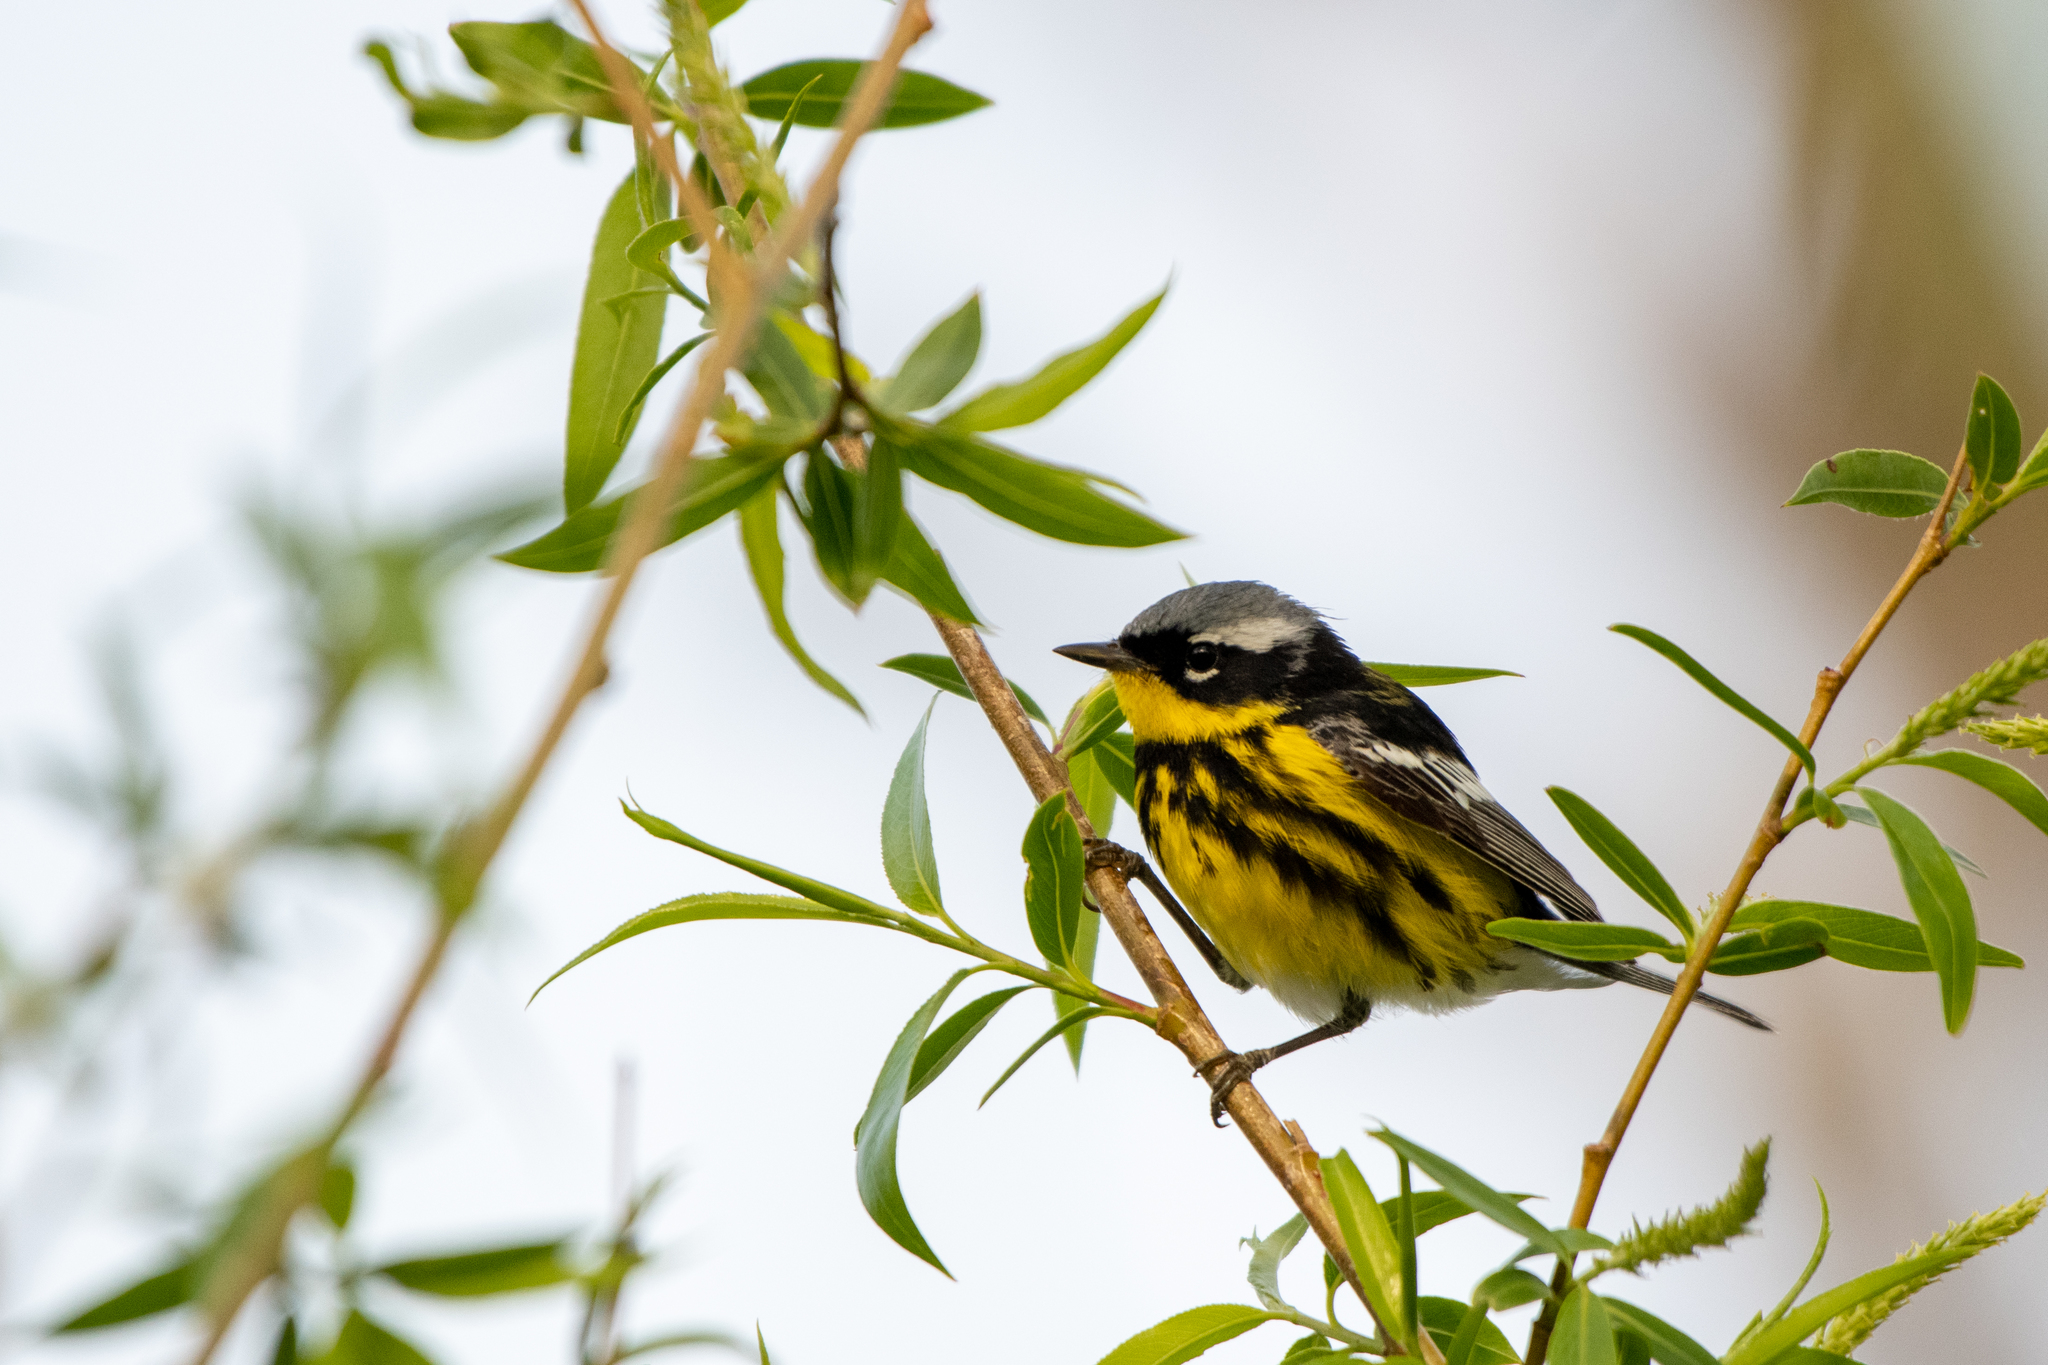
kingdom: Animalia
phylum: Chordata
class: Aves
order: Passeriformes
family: Parulidae
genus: Setophaga
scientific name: Setophaga magnolia
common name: Magnolia warbler
